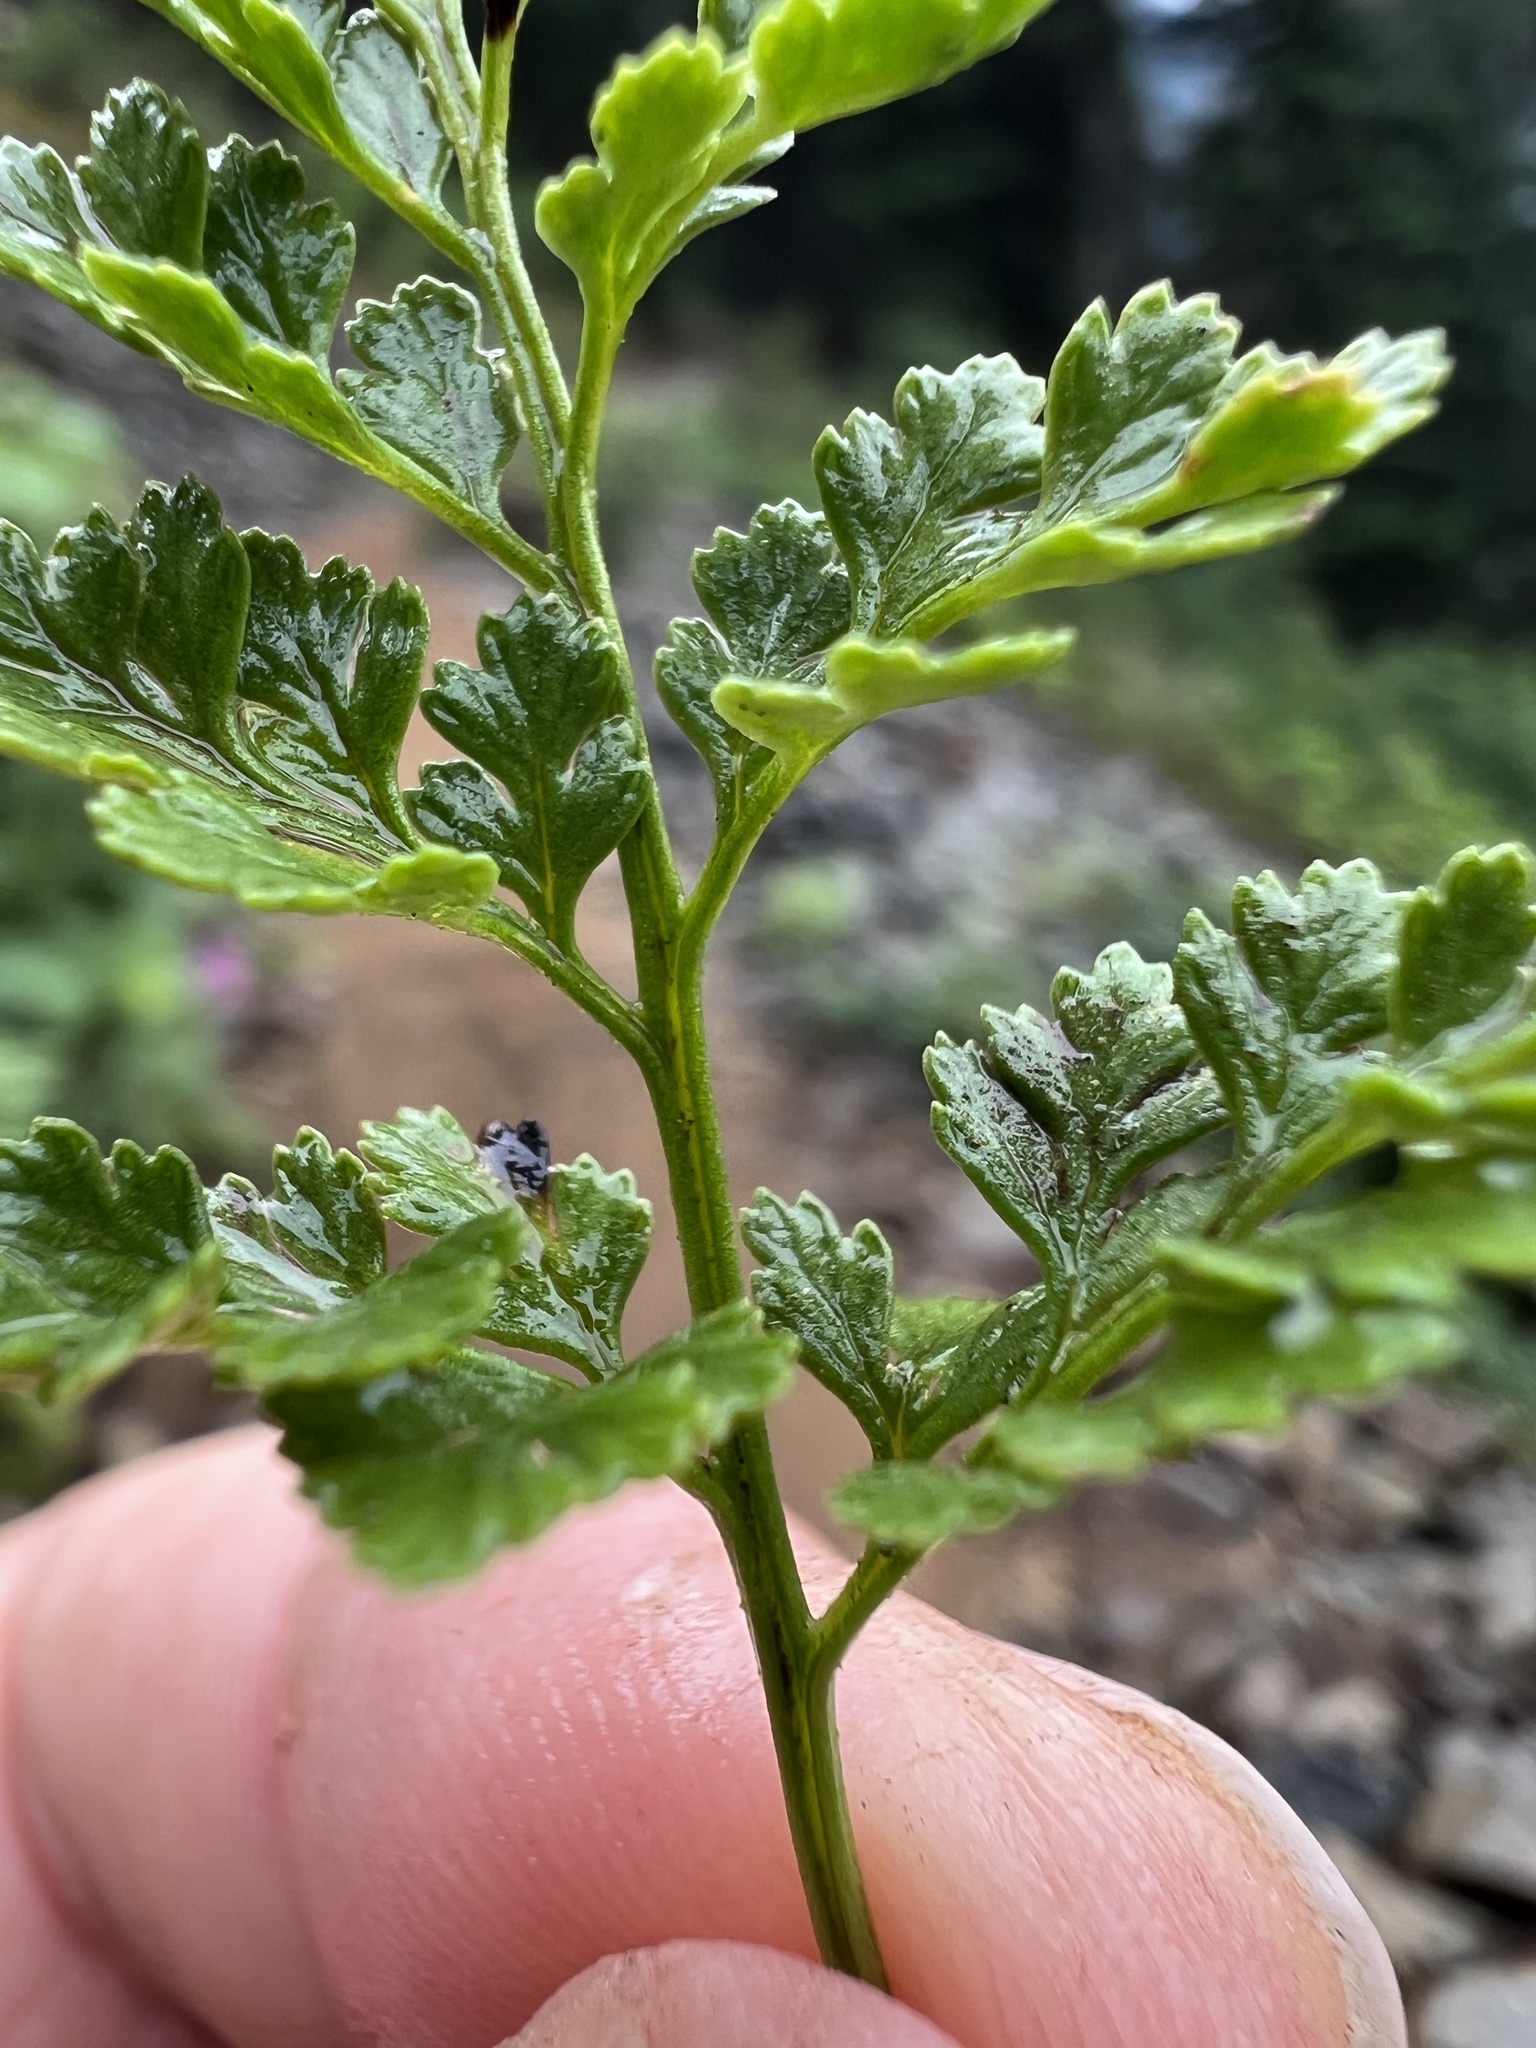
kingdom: Plantae
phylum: Tracheophyta
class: Polypodiopsida
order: Polypodiales
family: Pteridaceae
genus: Cryptogramma
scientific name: Cryptogramma acrostichoides
